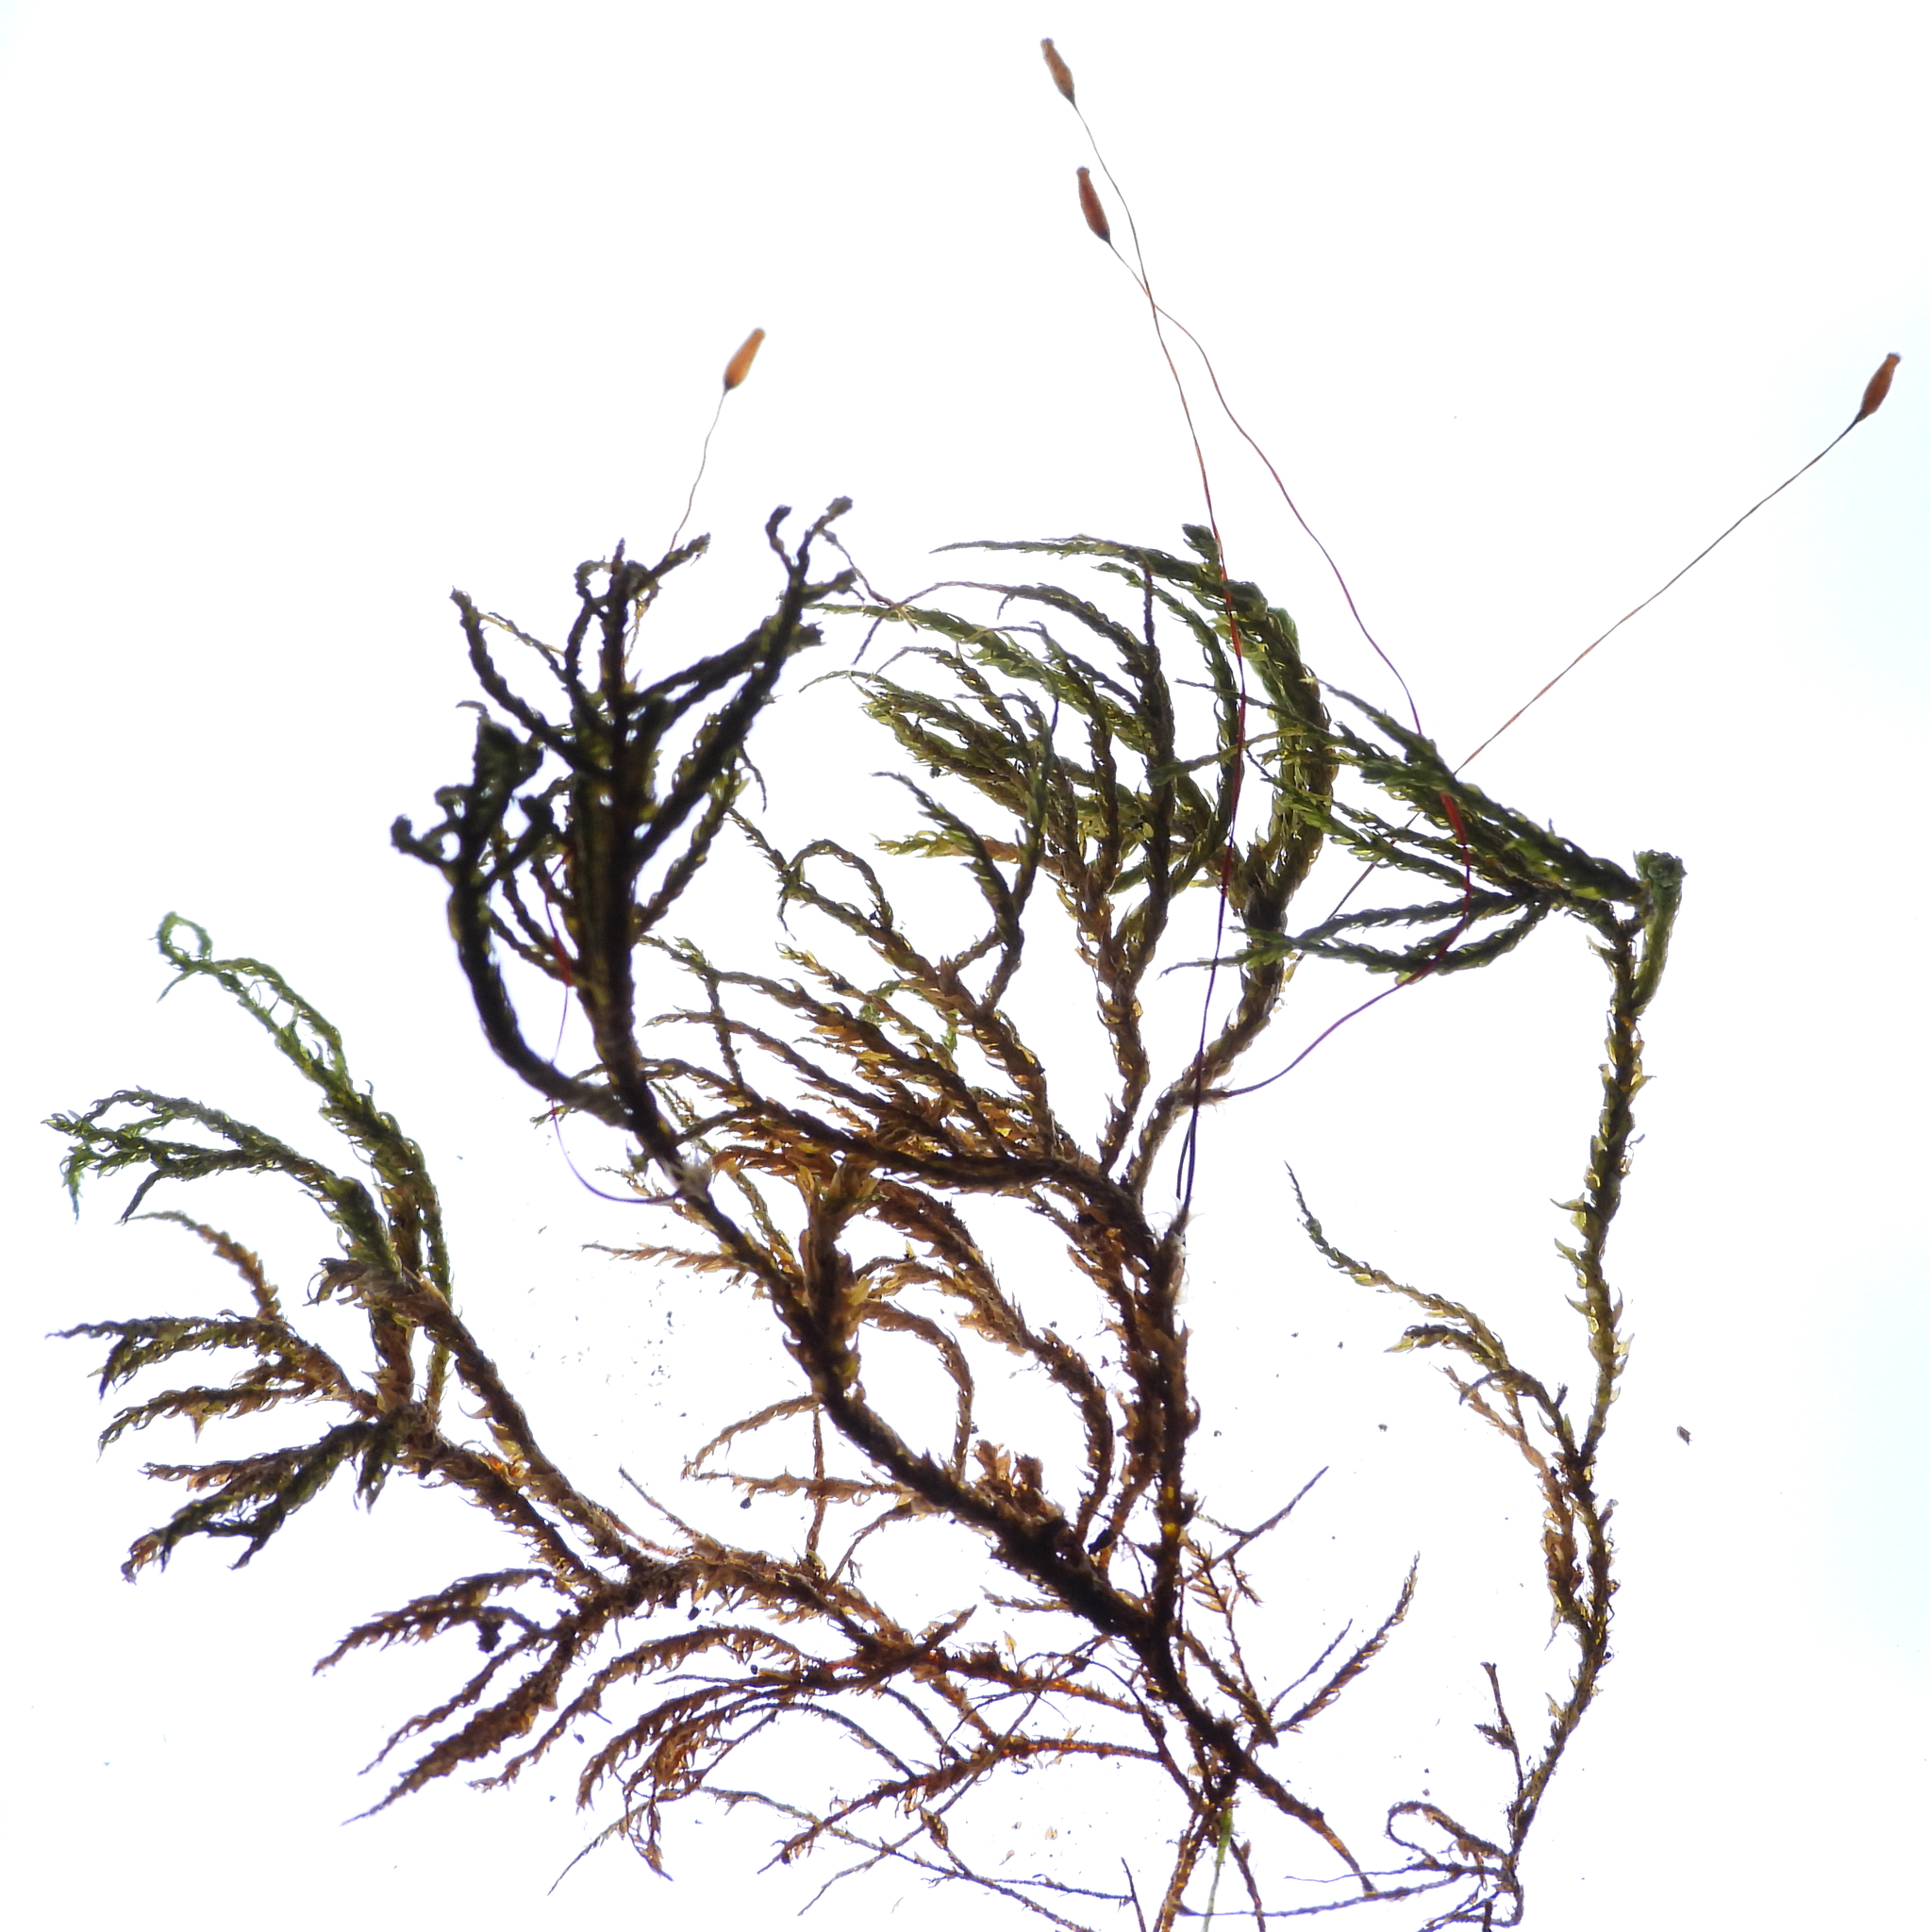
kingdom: Plantae
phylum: Bryophyta
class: Bryopsida
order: Hypnales
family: Neckeraceae
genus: Pseudanomodon
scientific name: Pseudanomodon attenuatus
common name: Tree-skirt moss
